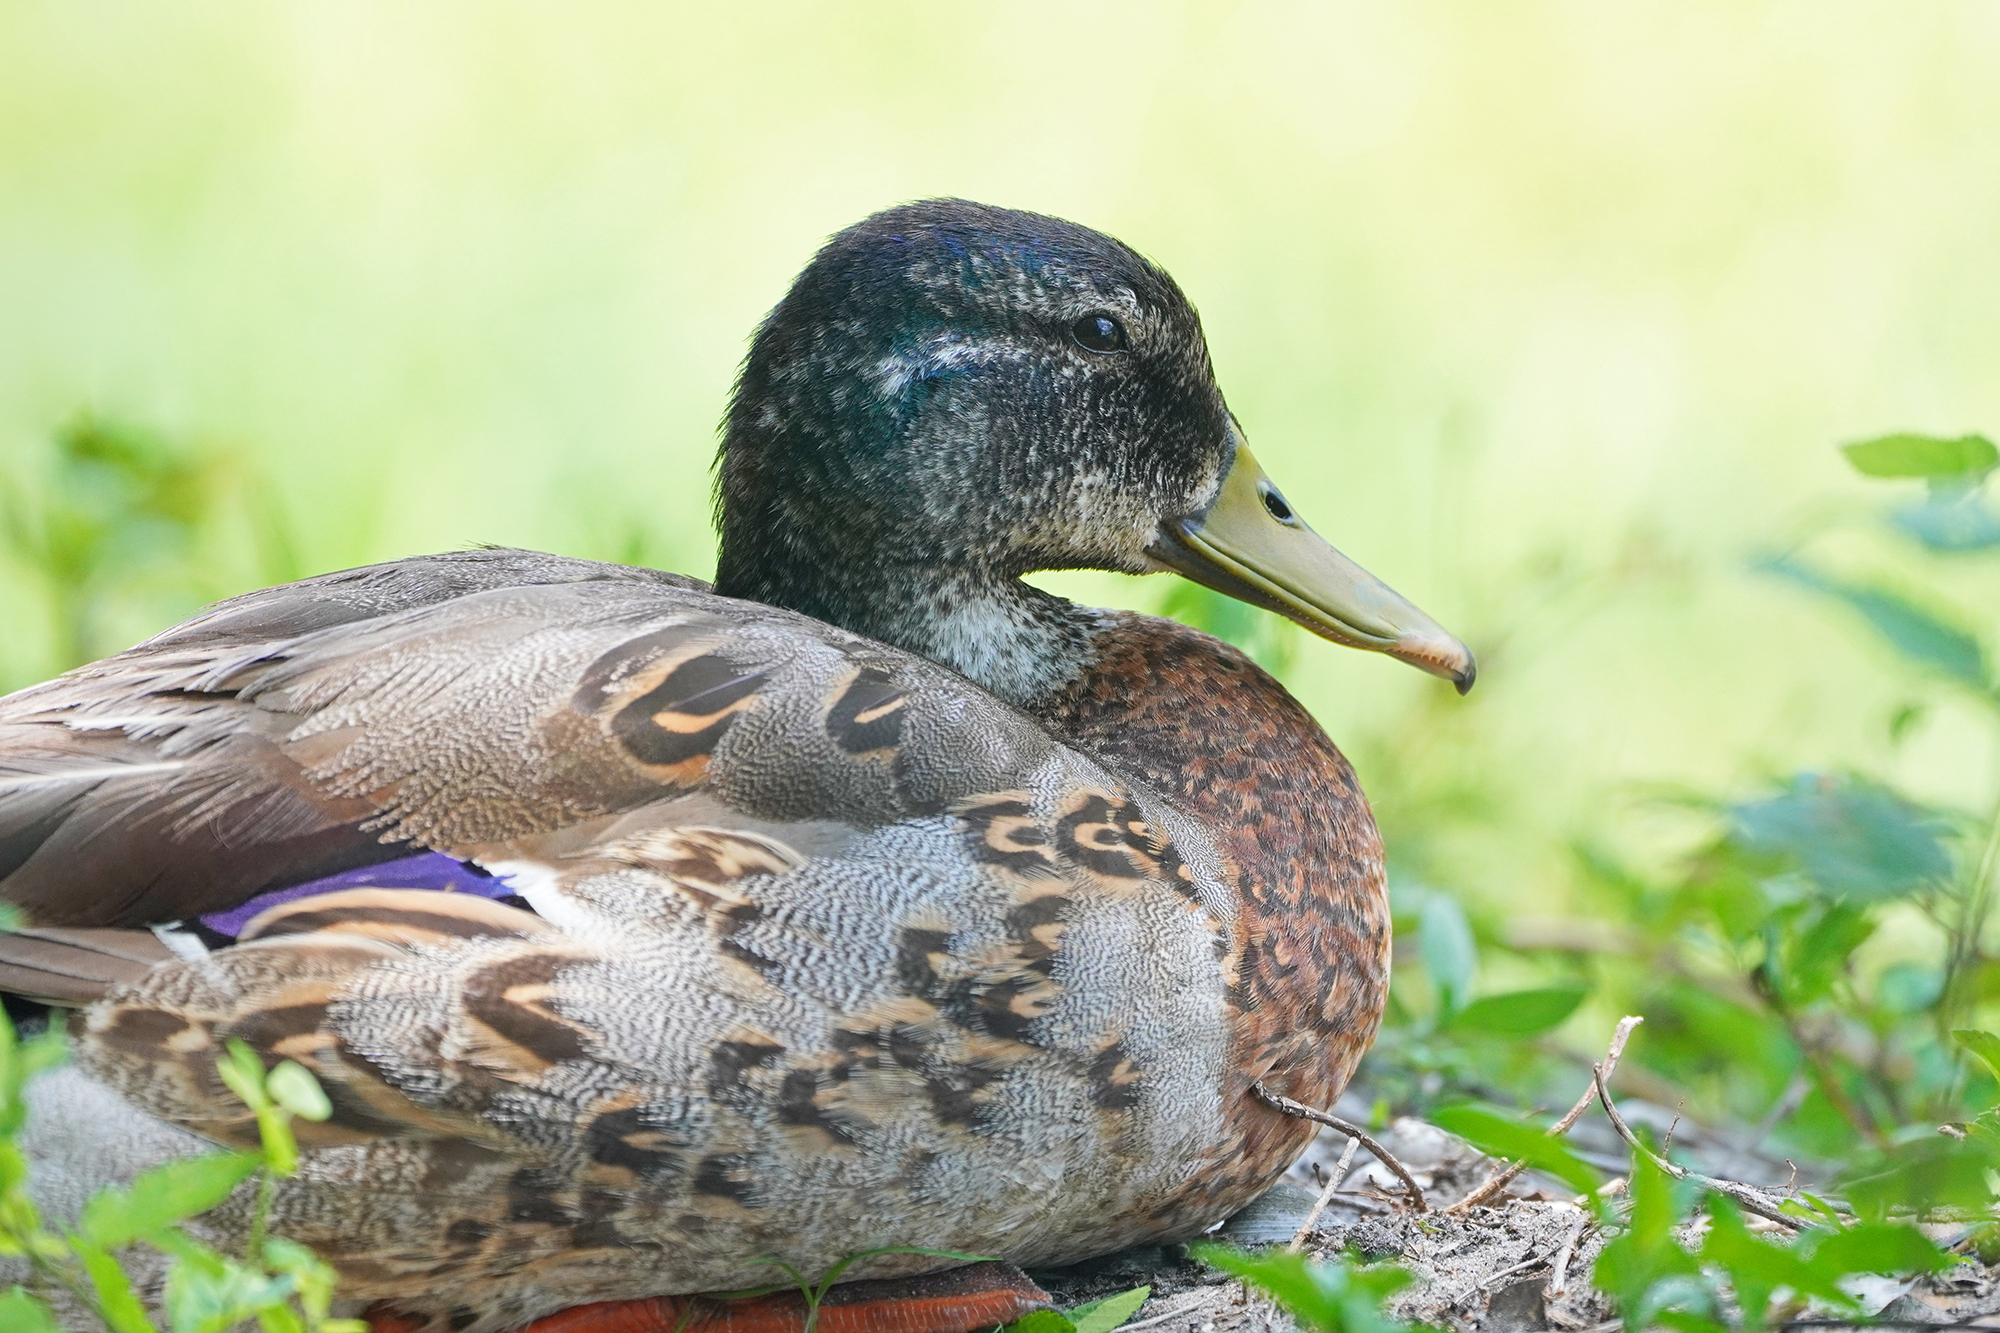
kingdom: Animalia
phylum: Chordata
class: Aves
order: Anseriformes
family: Anatidae
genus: Anas
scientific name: Anas platyrhynchos
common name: Mallard
